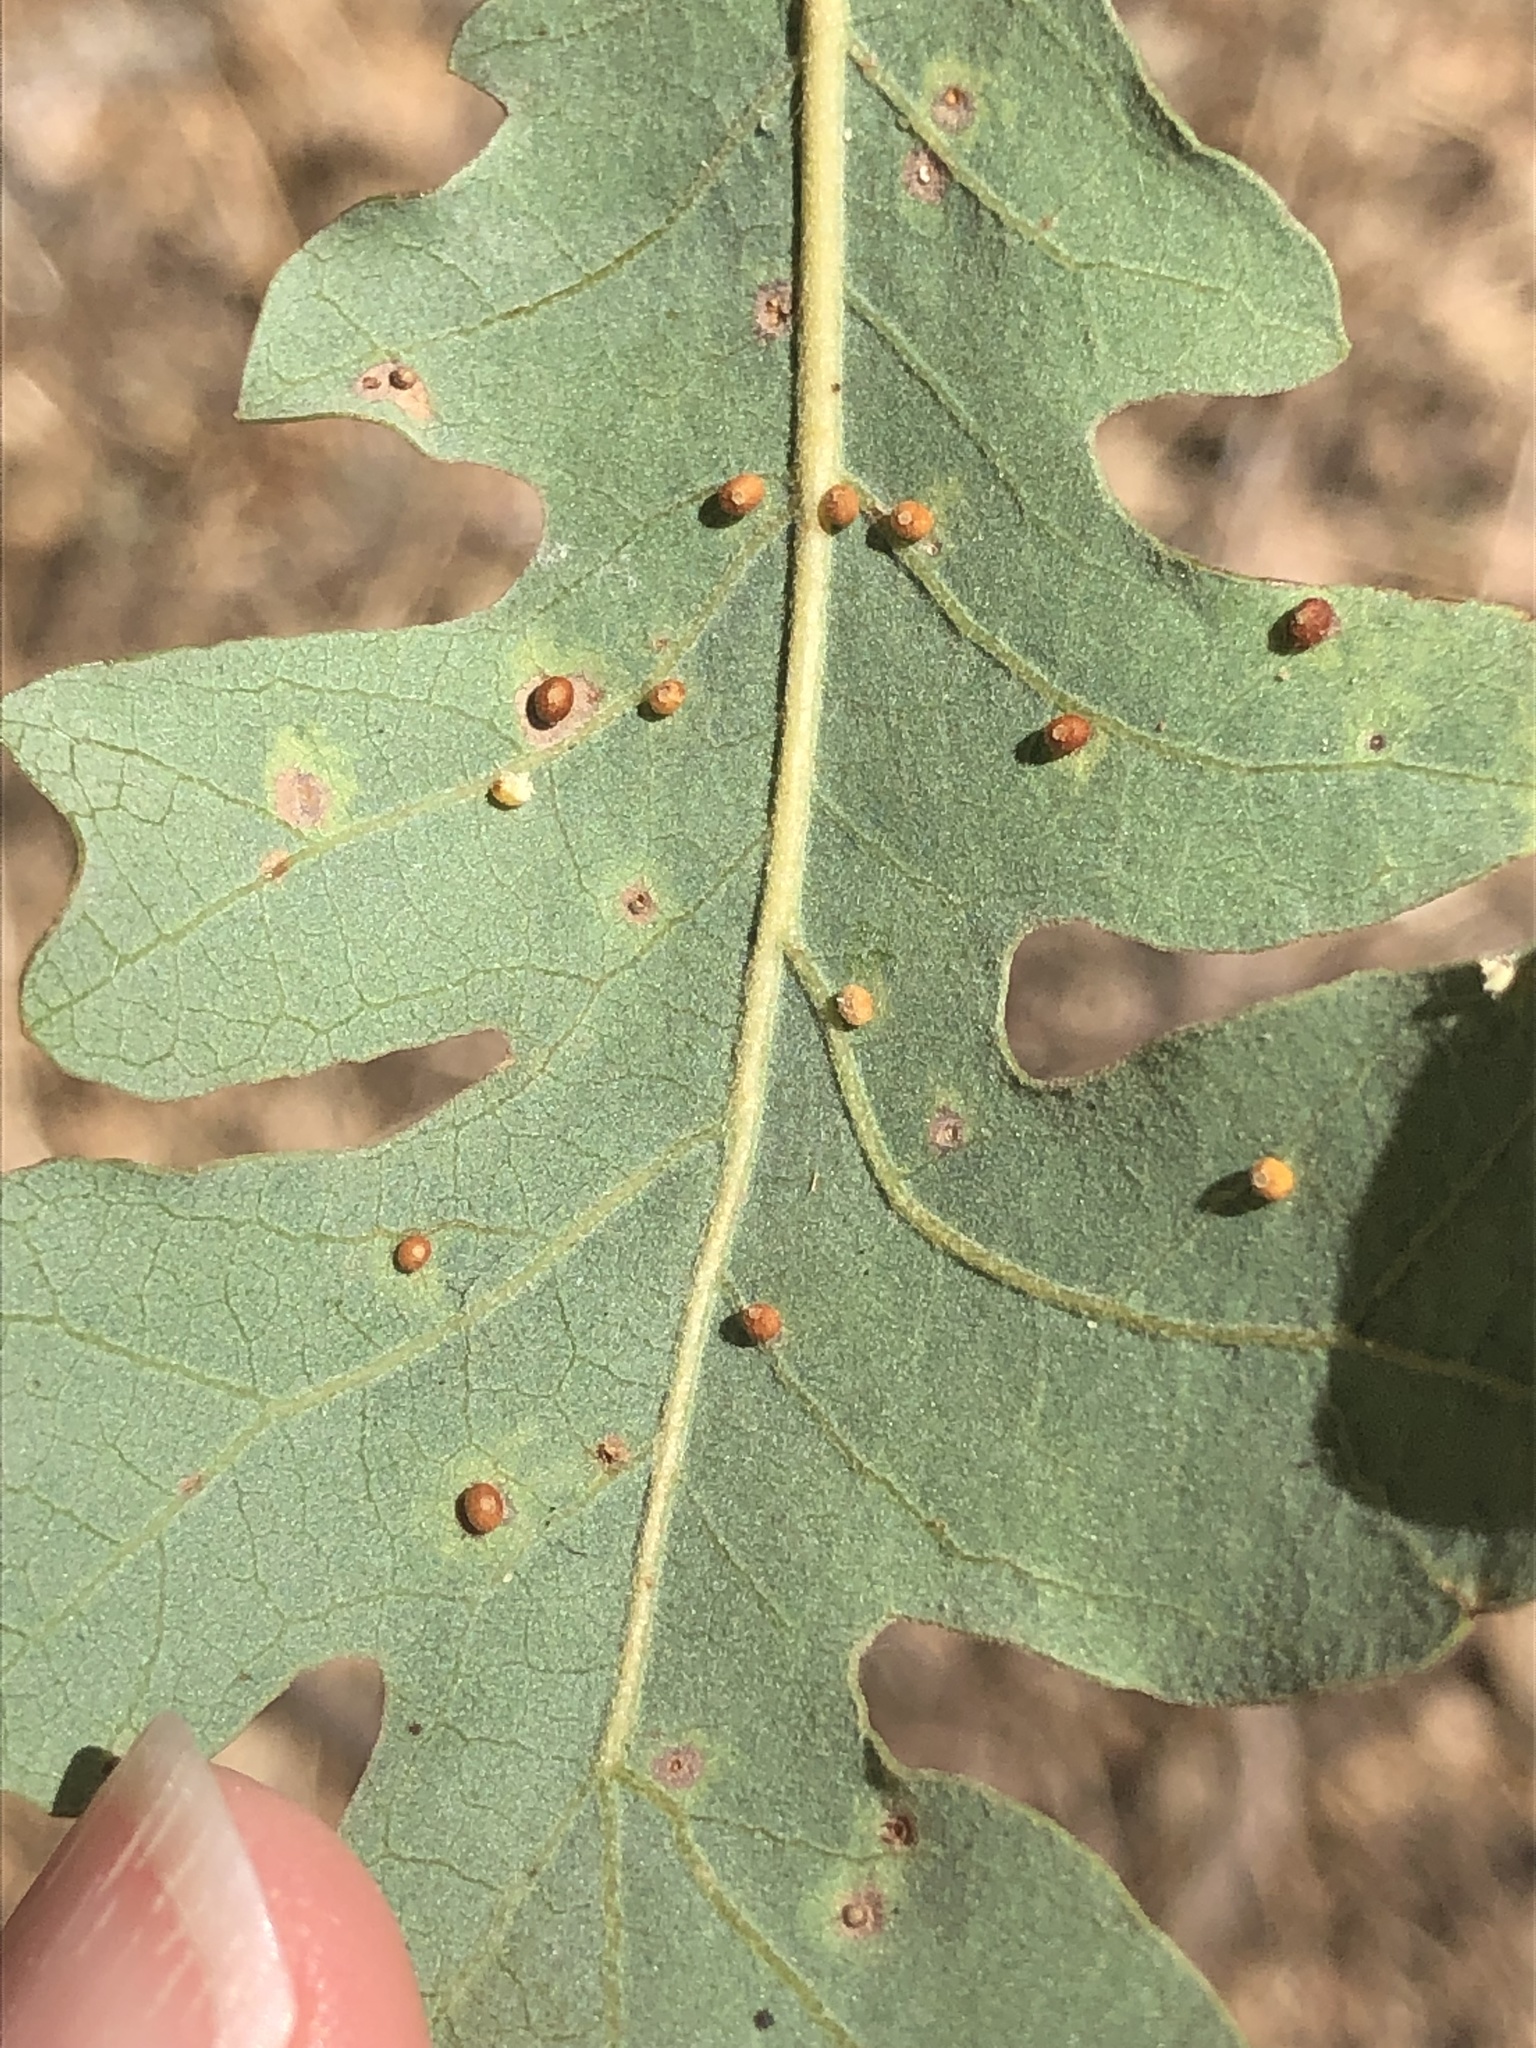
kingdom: Animalia
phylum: Arthropoda
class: Insecta
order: Hymenoptera
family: Cynipidae
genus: Neuroterus
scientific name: Neuroterus saltarius
